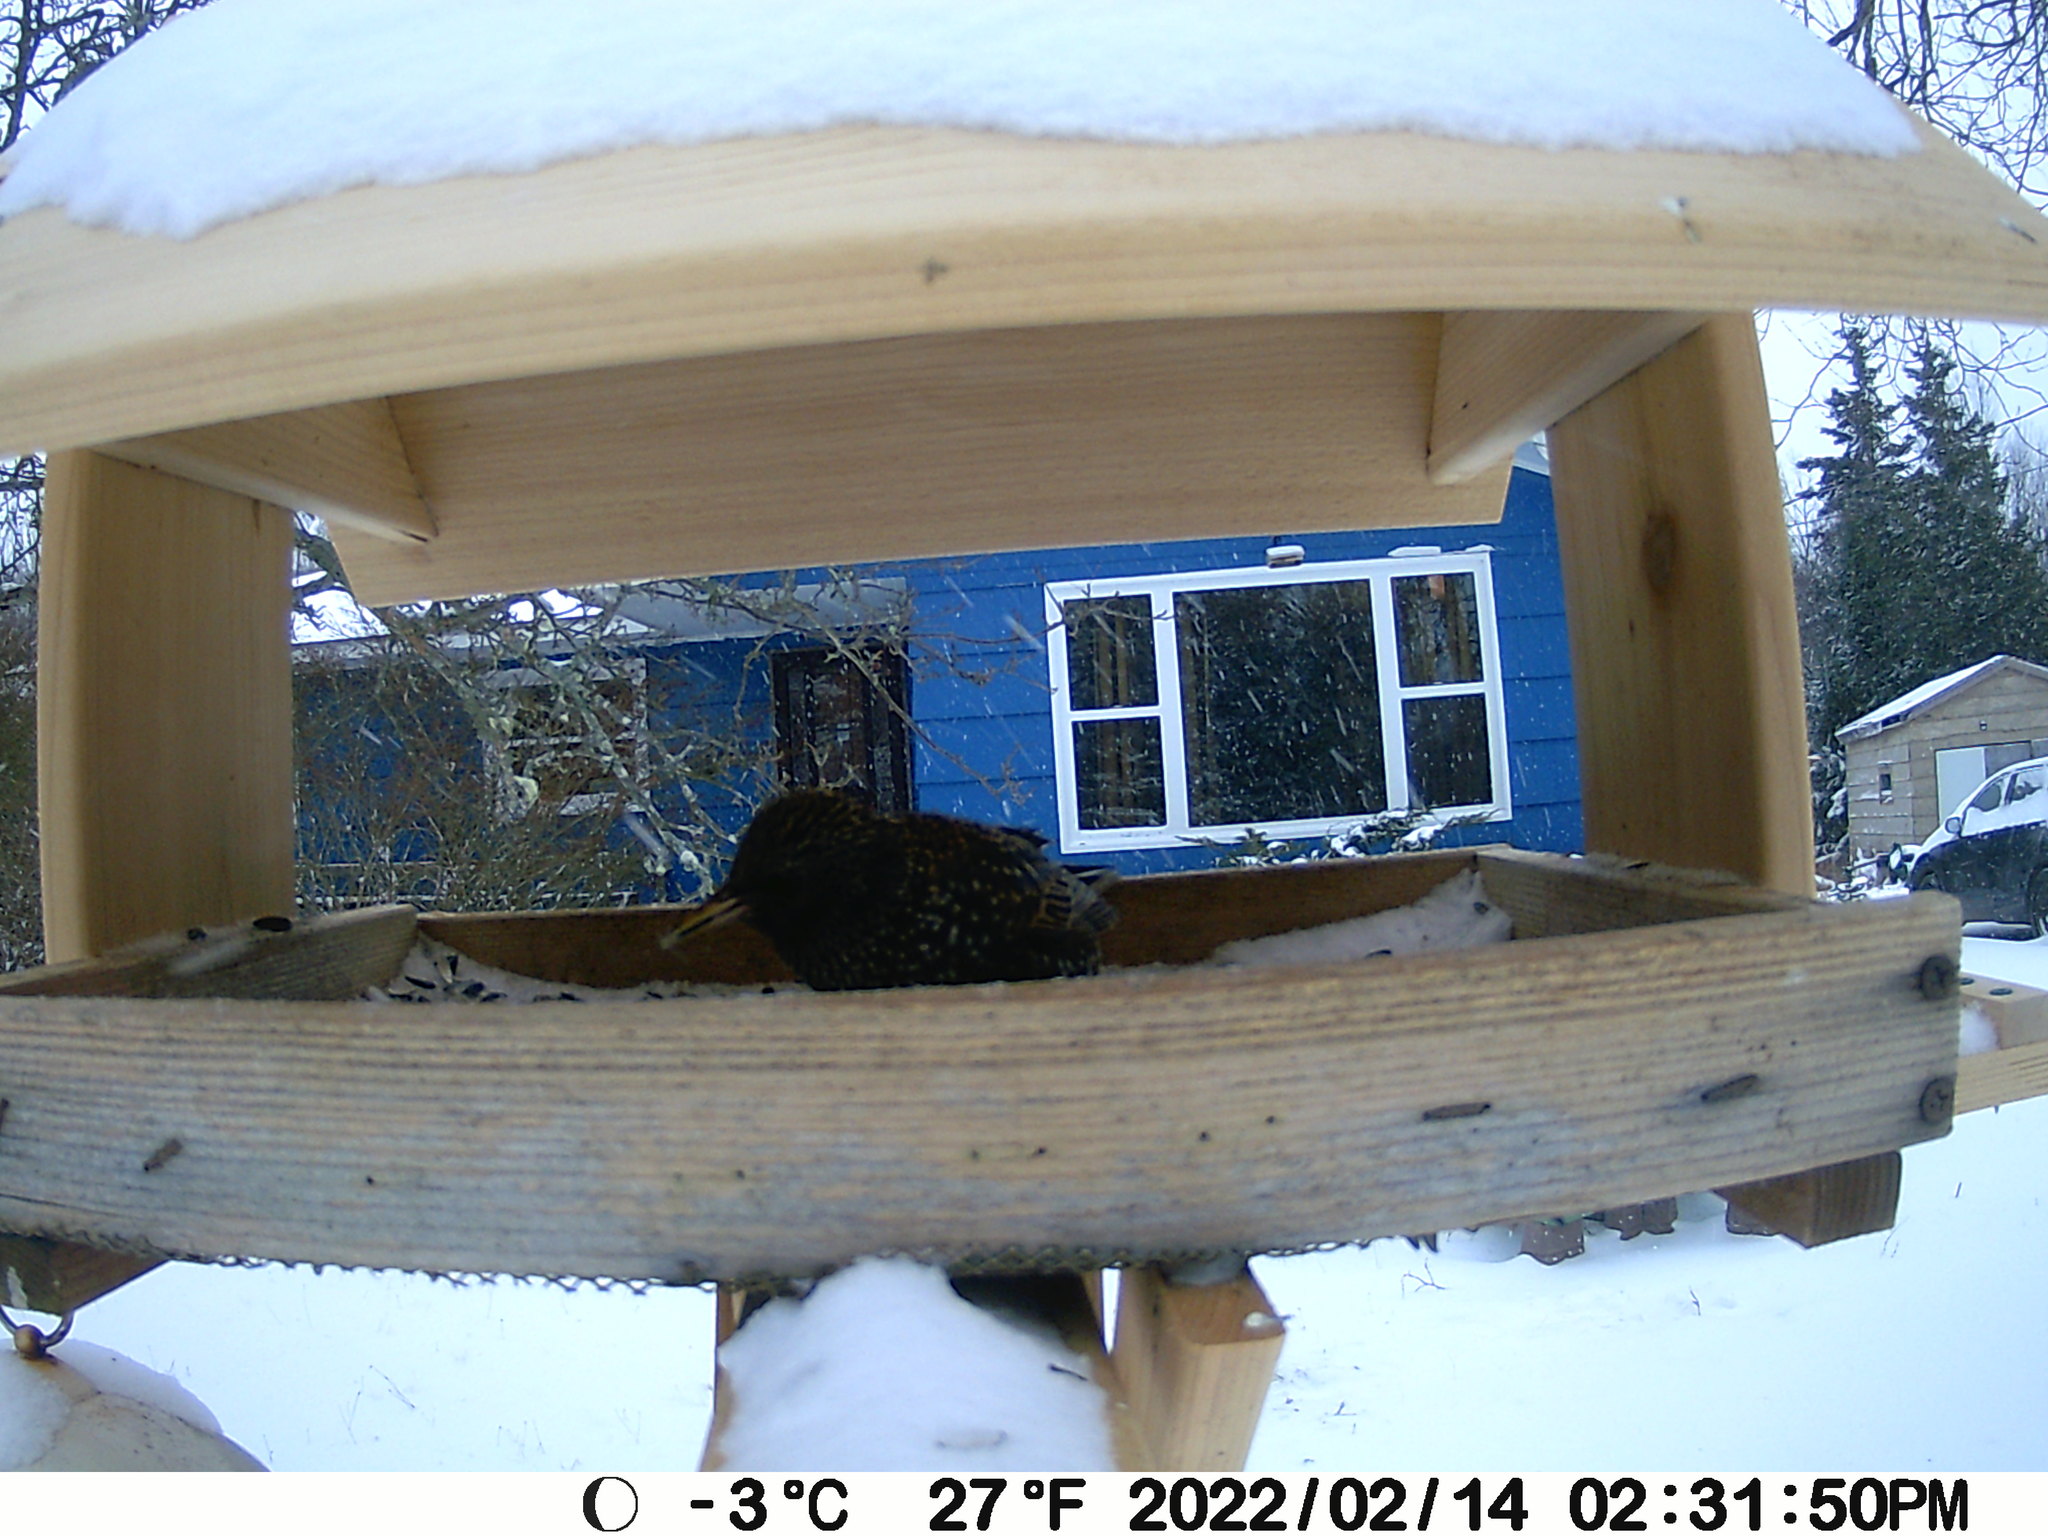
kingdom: Animalia
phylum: Chordata
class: Aves
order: Passeriformes
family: Sturnidae
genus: Sturnus
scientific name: Sturnus vulgaris
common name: Common starling
